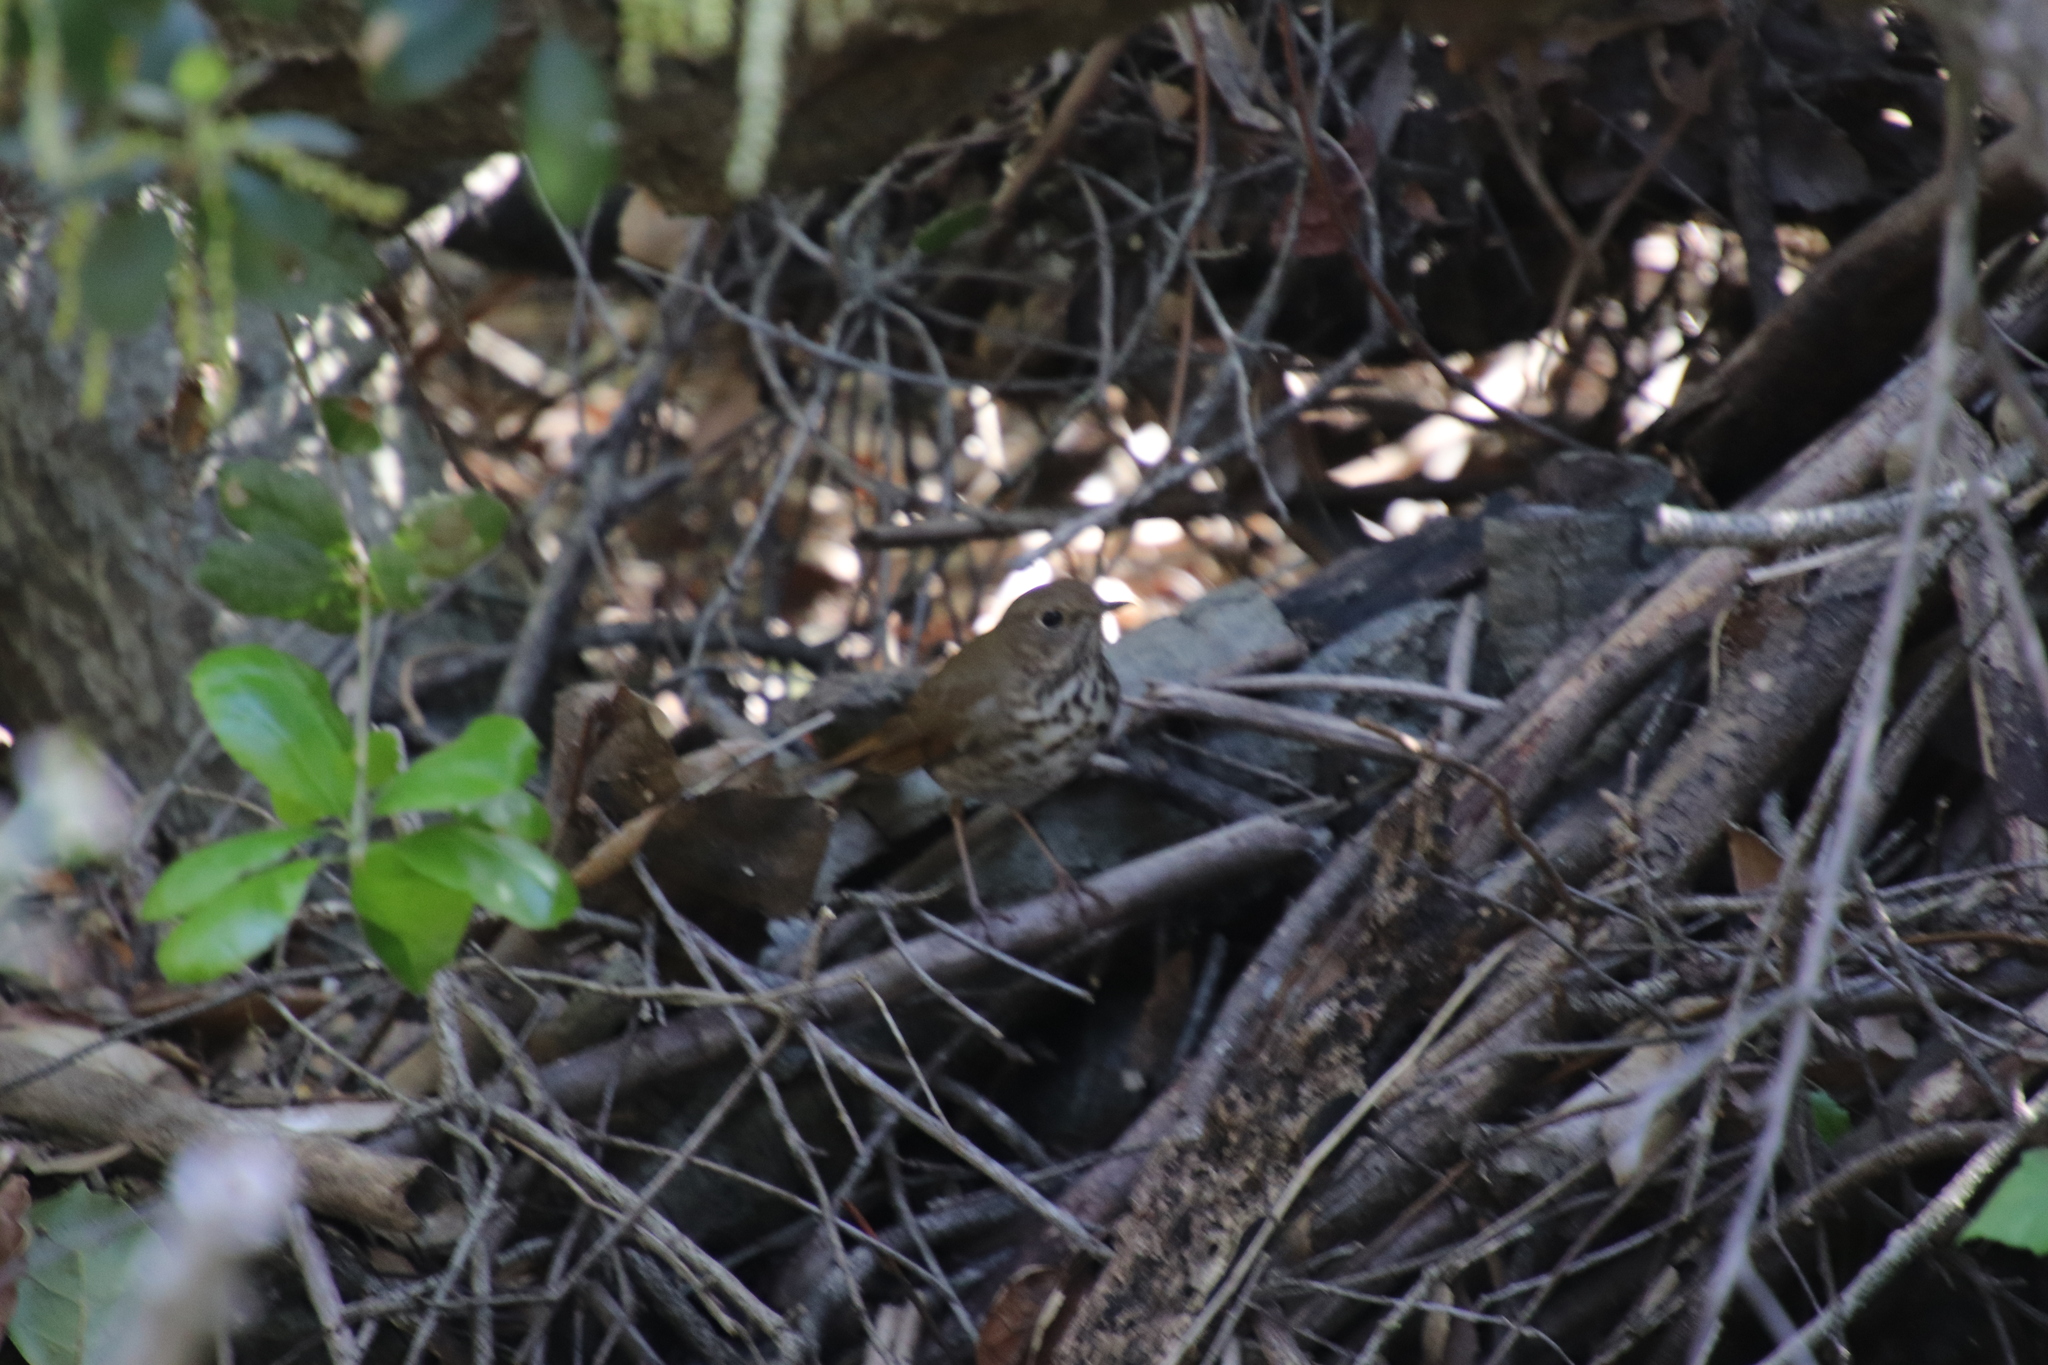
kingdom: Animalia
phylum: Chordata
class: Aves
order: Passeriformes
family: Turdidae
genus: Catharus
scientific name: Catharus guttatus
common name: Hermit thrush
